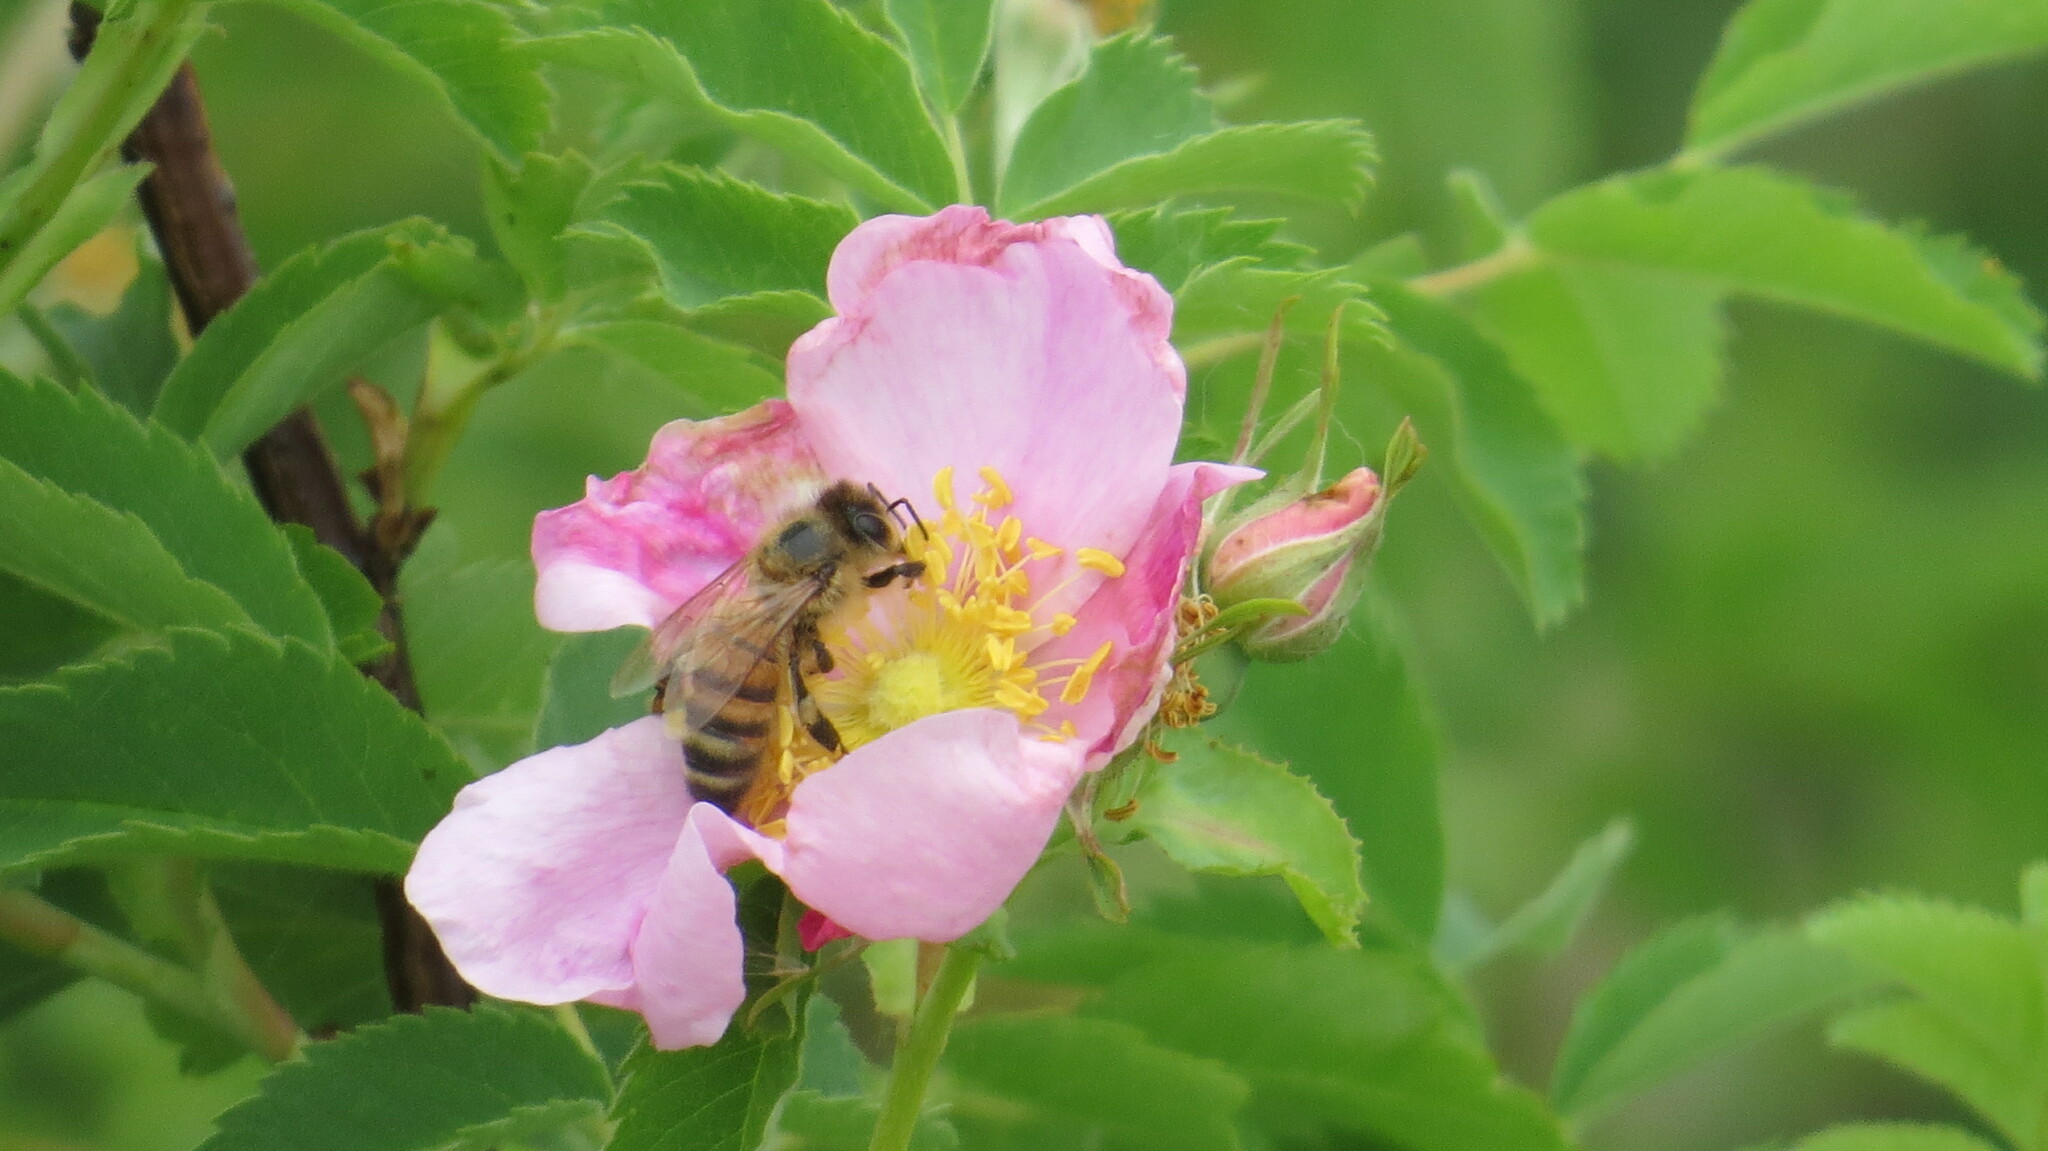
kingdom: Animalia
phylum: Arthropoda
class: Insecta
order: Hymenoptera
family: Apidae
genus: Apis
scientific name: Apis mellifera
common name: Honey bee
